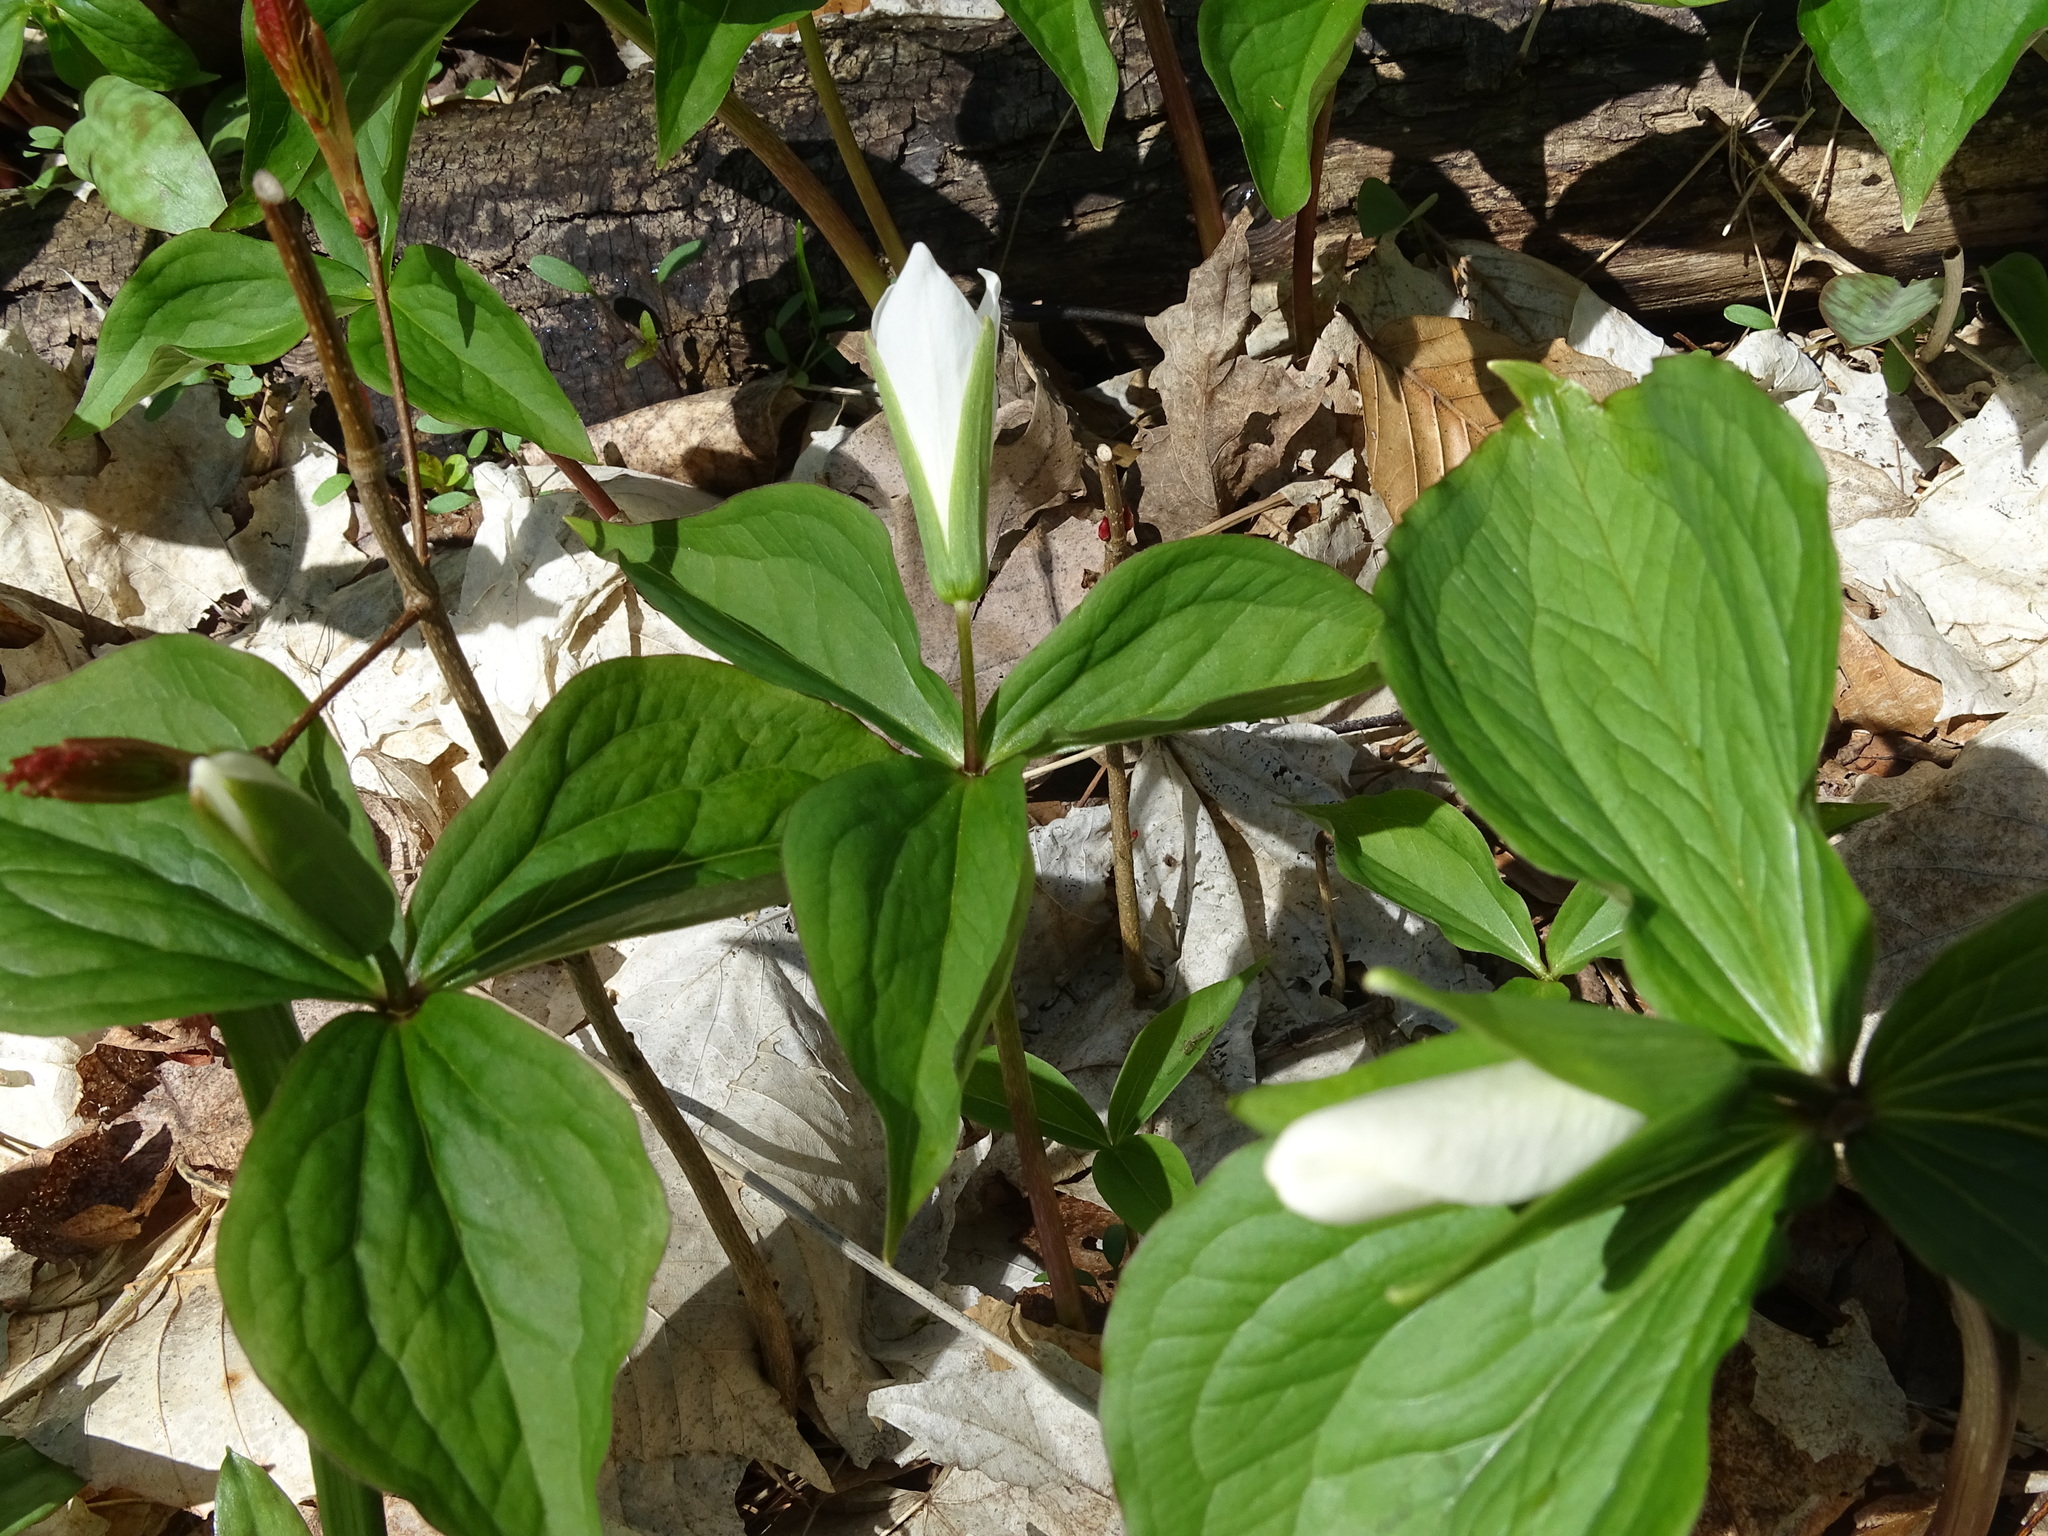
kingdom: Plantae
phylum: Tracheophyta
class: Liliopsida
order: Liliales
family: Melanthiaceae
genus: Trillium
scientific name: Trillium grandiflorum
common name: Great white trillium
